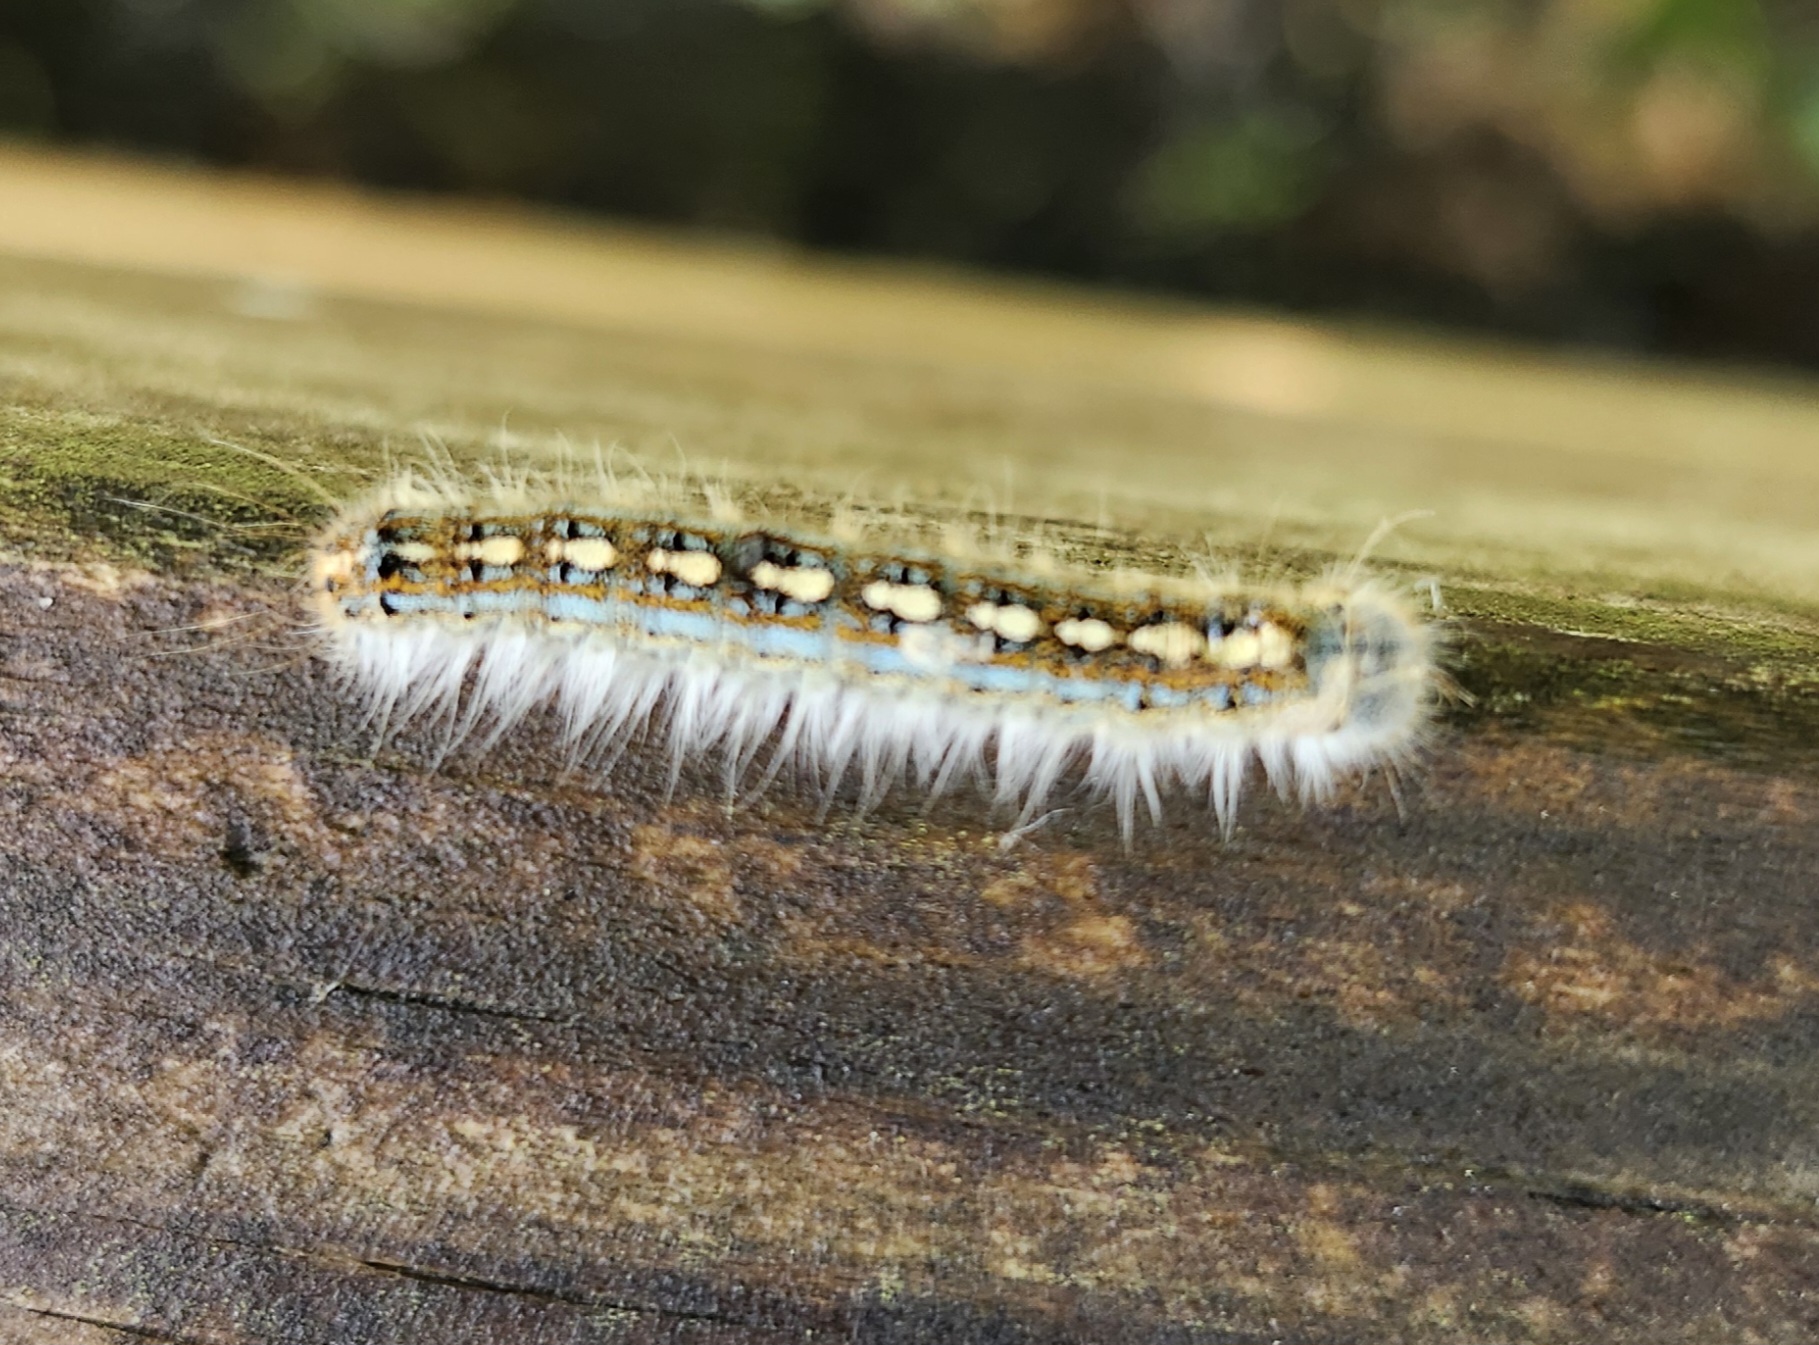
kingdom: Animalia
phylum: Arthropoda
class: Insecta
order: Lepidoptera
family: Lasiocampidae
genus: Malacosoma
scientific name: Malacosoma disstria
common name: Forest tent caterpillar
